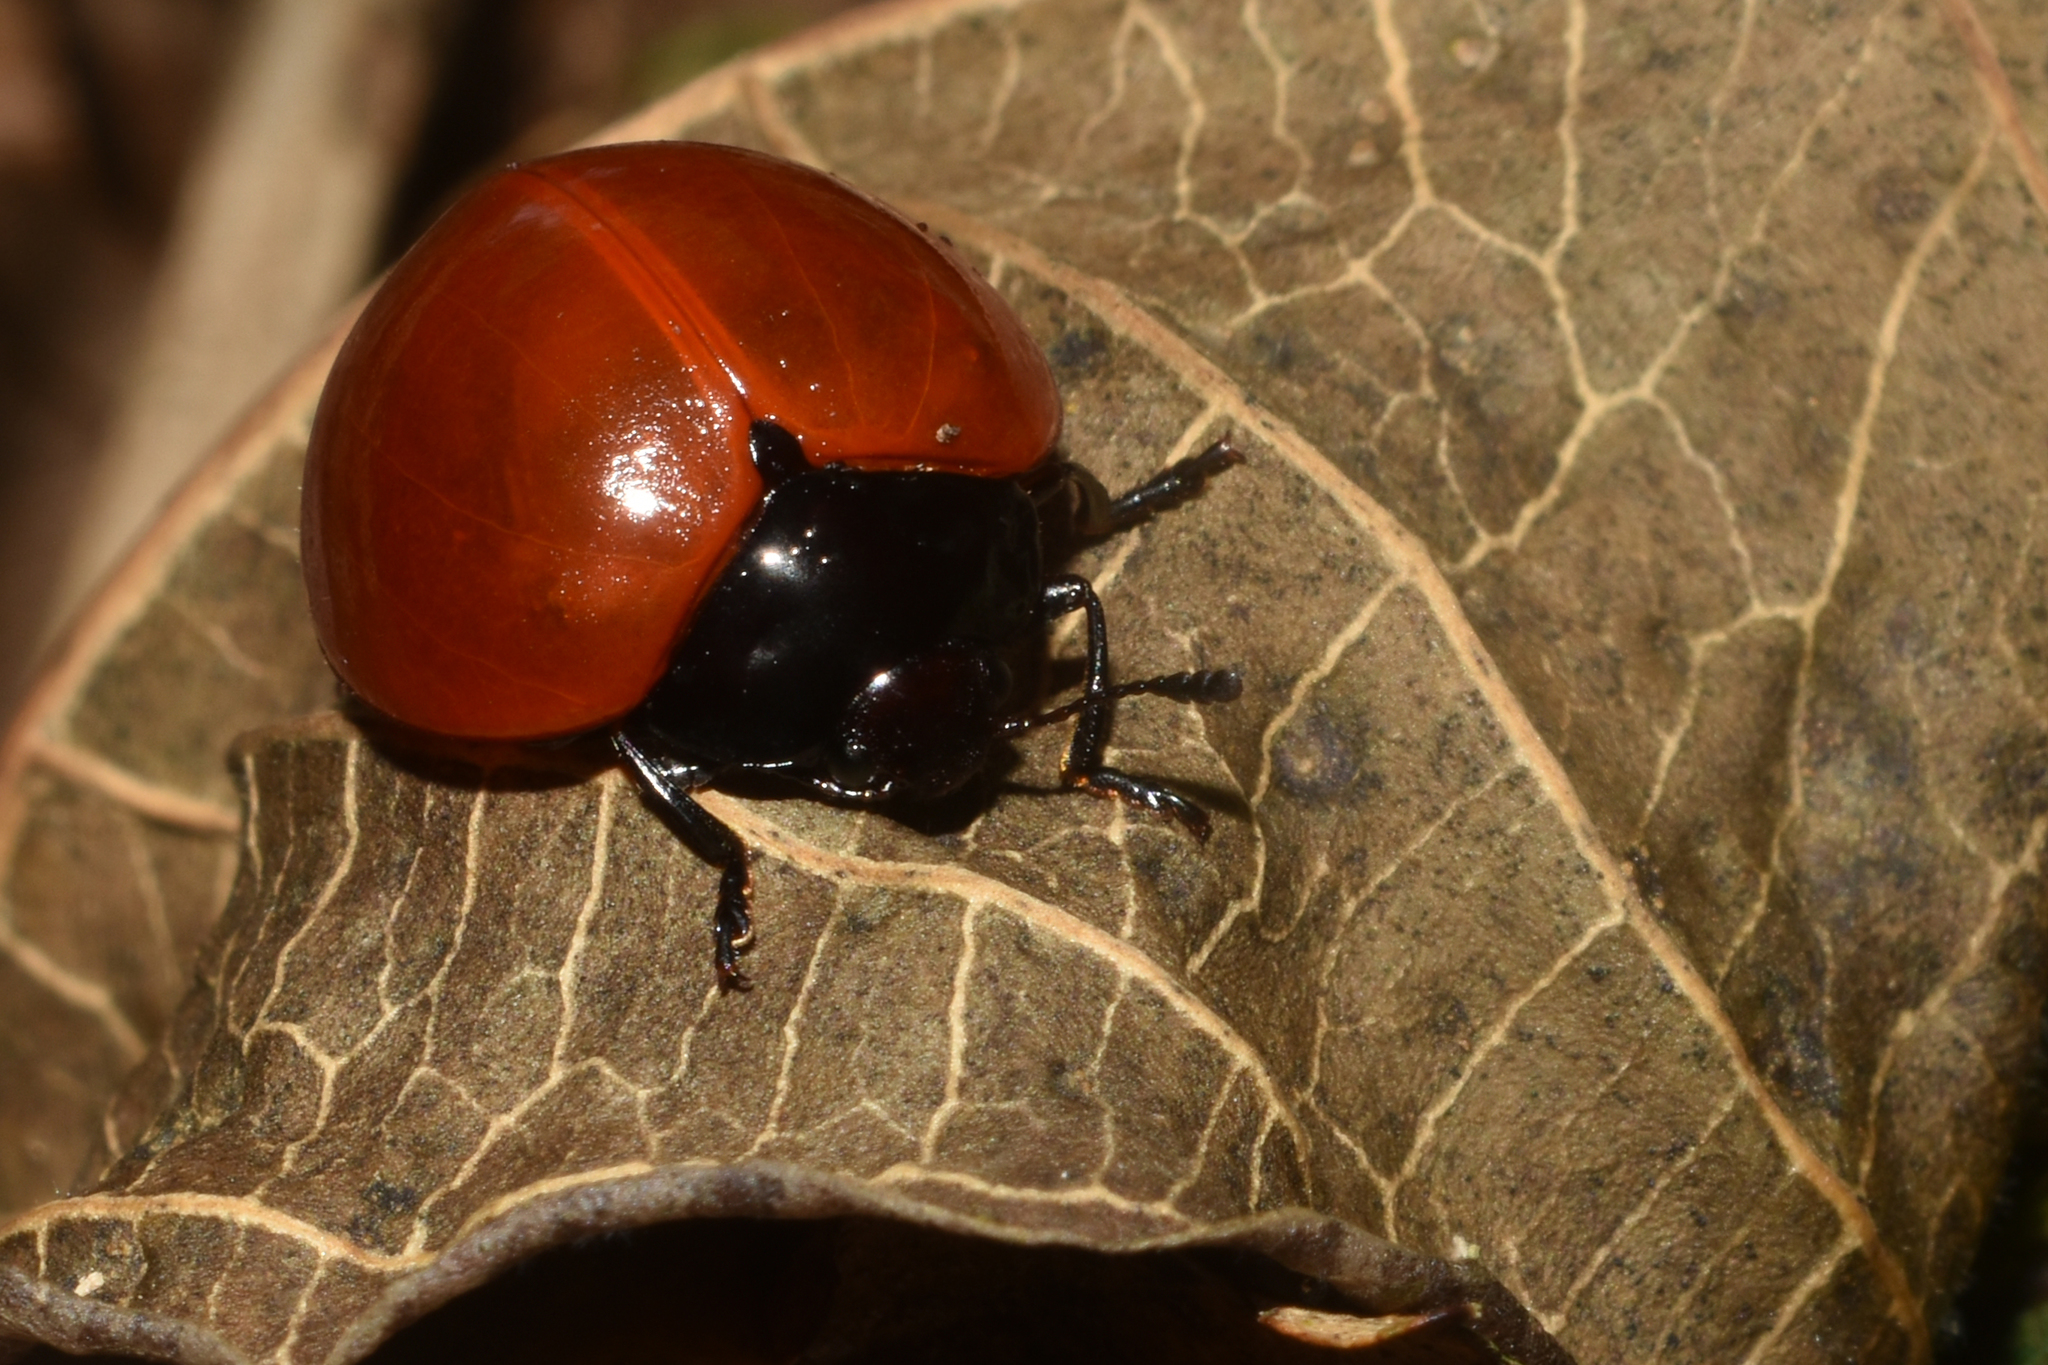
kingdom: Animalia
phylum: Arthropoda
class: Insecta
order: Coleoptera
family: Erotylidae
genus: Aegithus
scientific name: Aegithus
